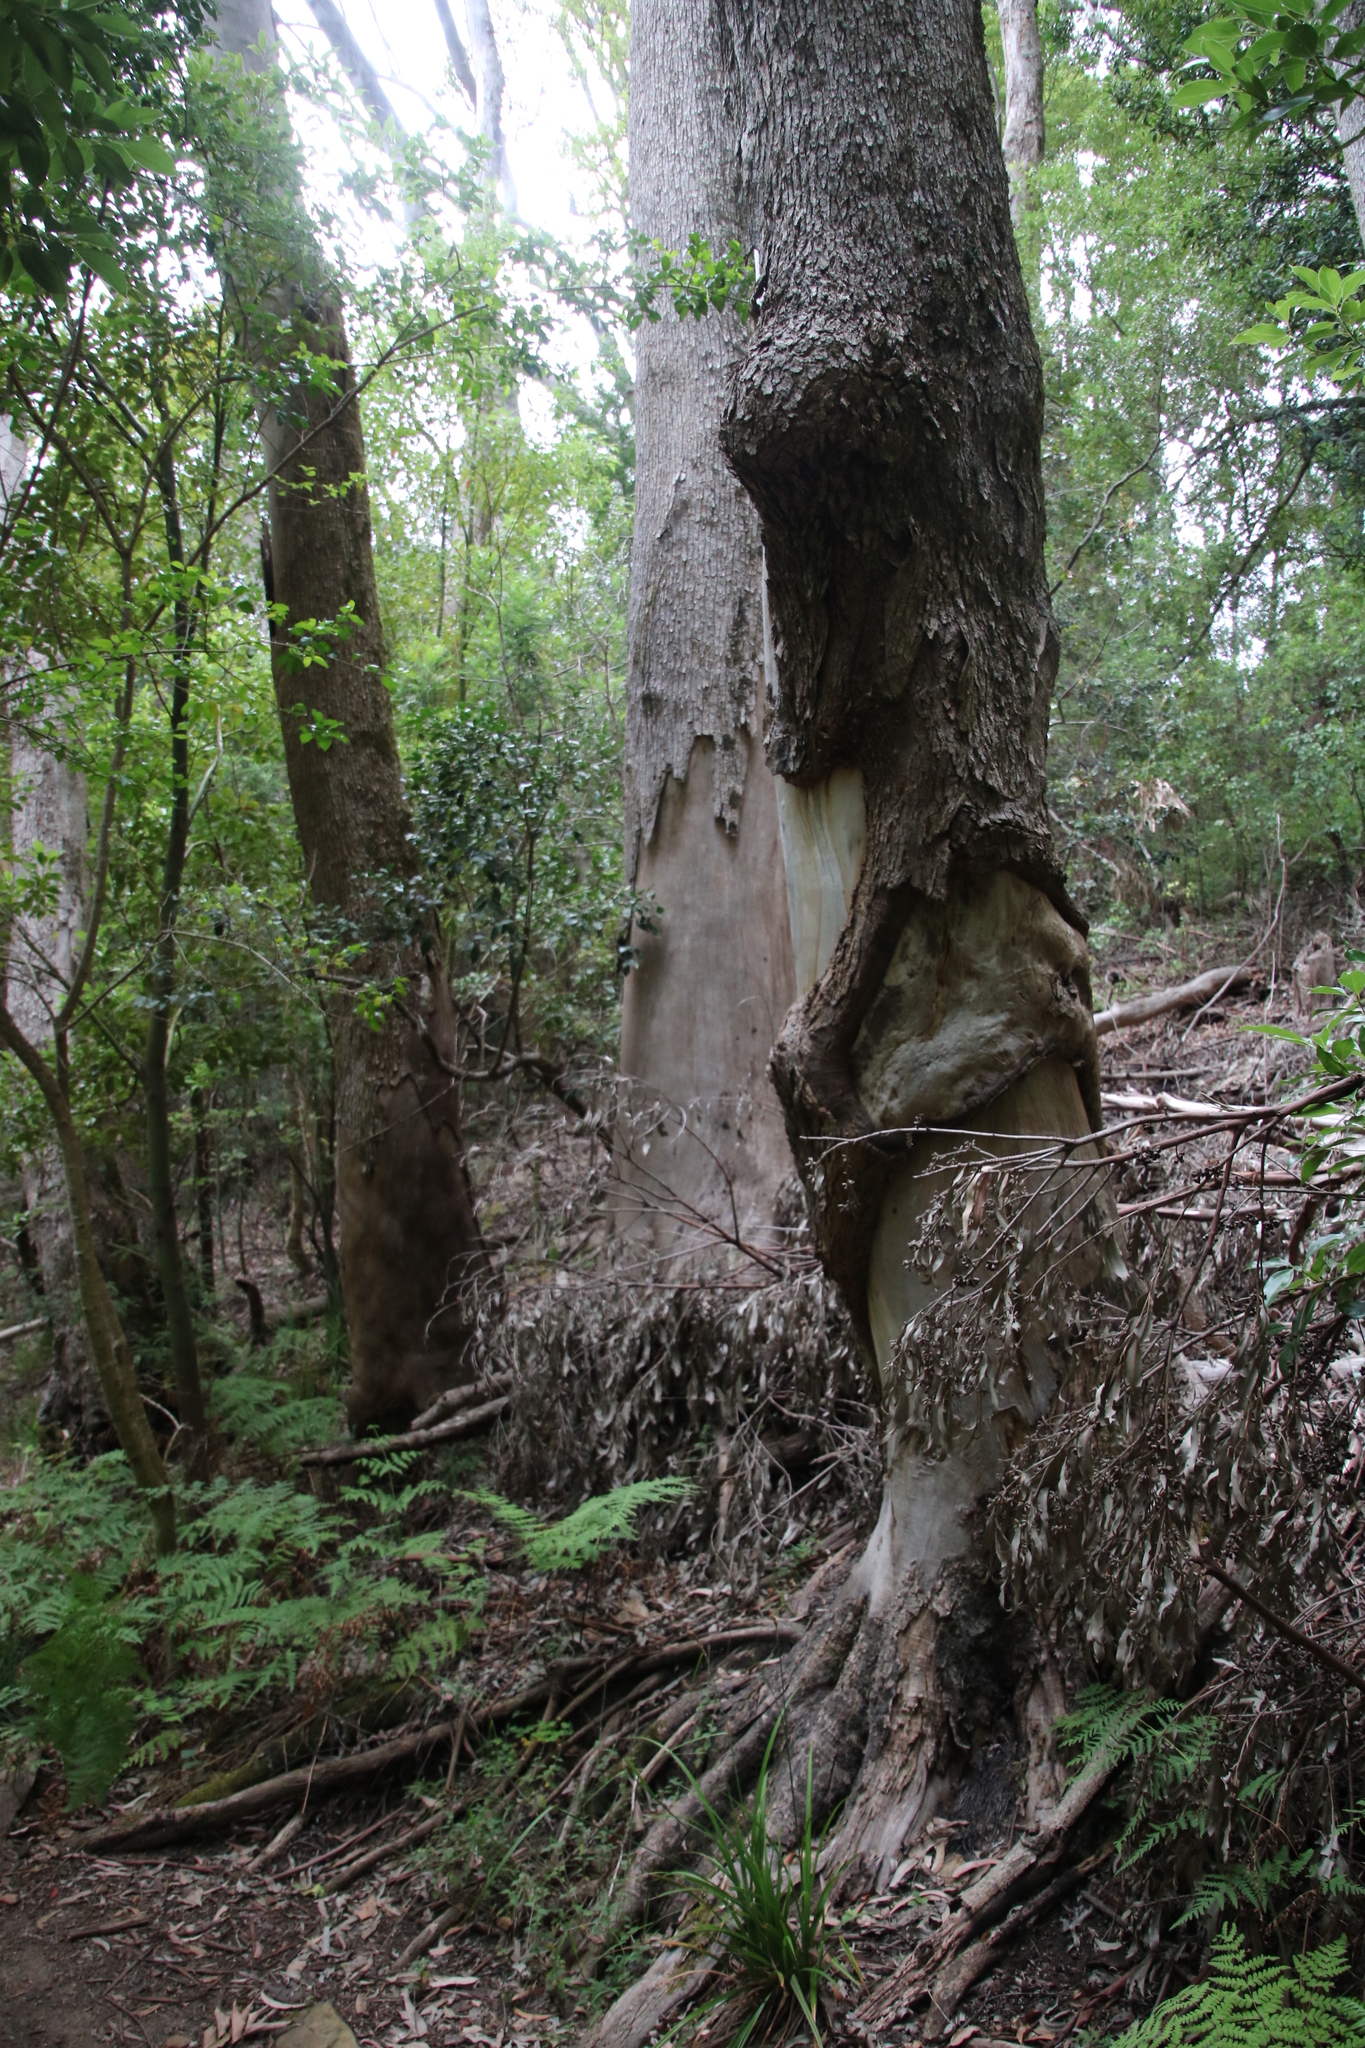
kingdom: Plantae
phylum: Tracheophyta
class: Magnoliopsida
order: Laurales
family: Lauraceae
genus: Cinnamomum
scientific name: Cinnamomum camphora
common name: Camphortree
